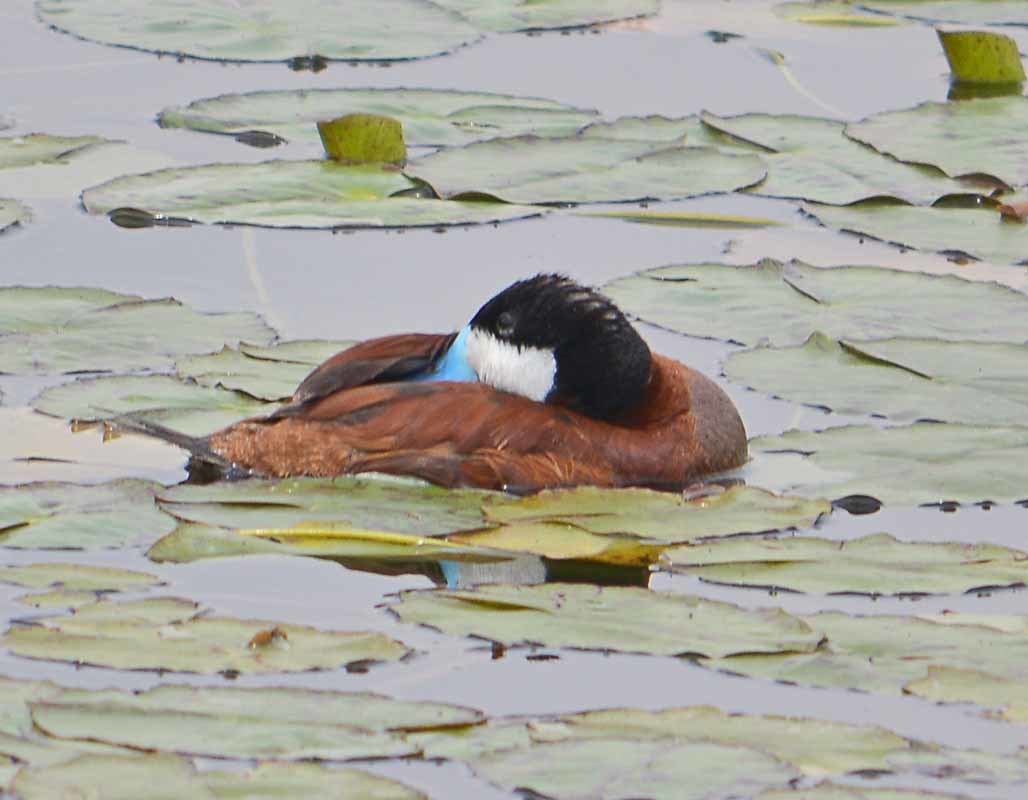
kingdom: Animalia
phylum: Chordata
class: Aves
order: Anseriformes
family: Anatidae
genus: Oxyura
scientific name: Oxyura jamaicensis
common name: Ruddy duck
